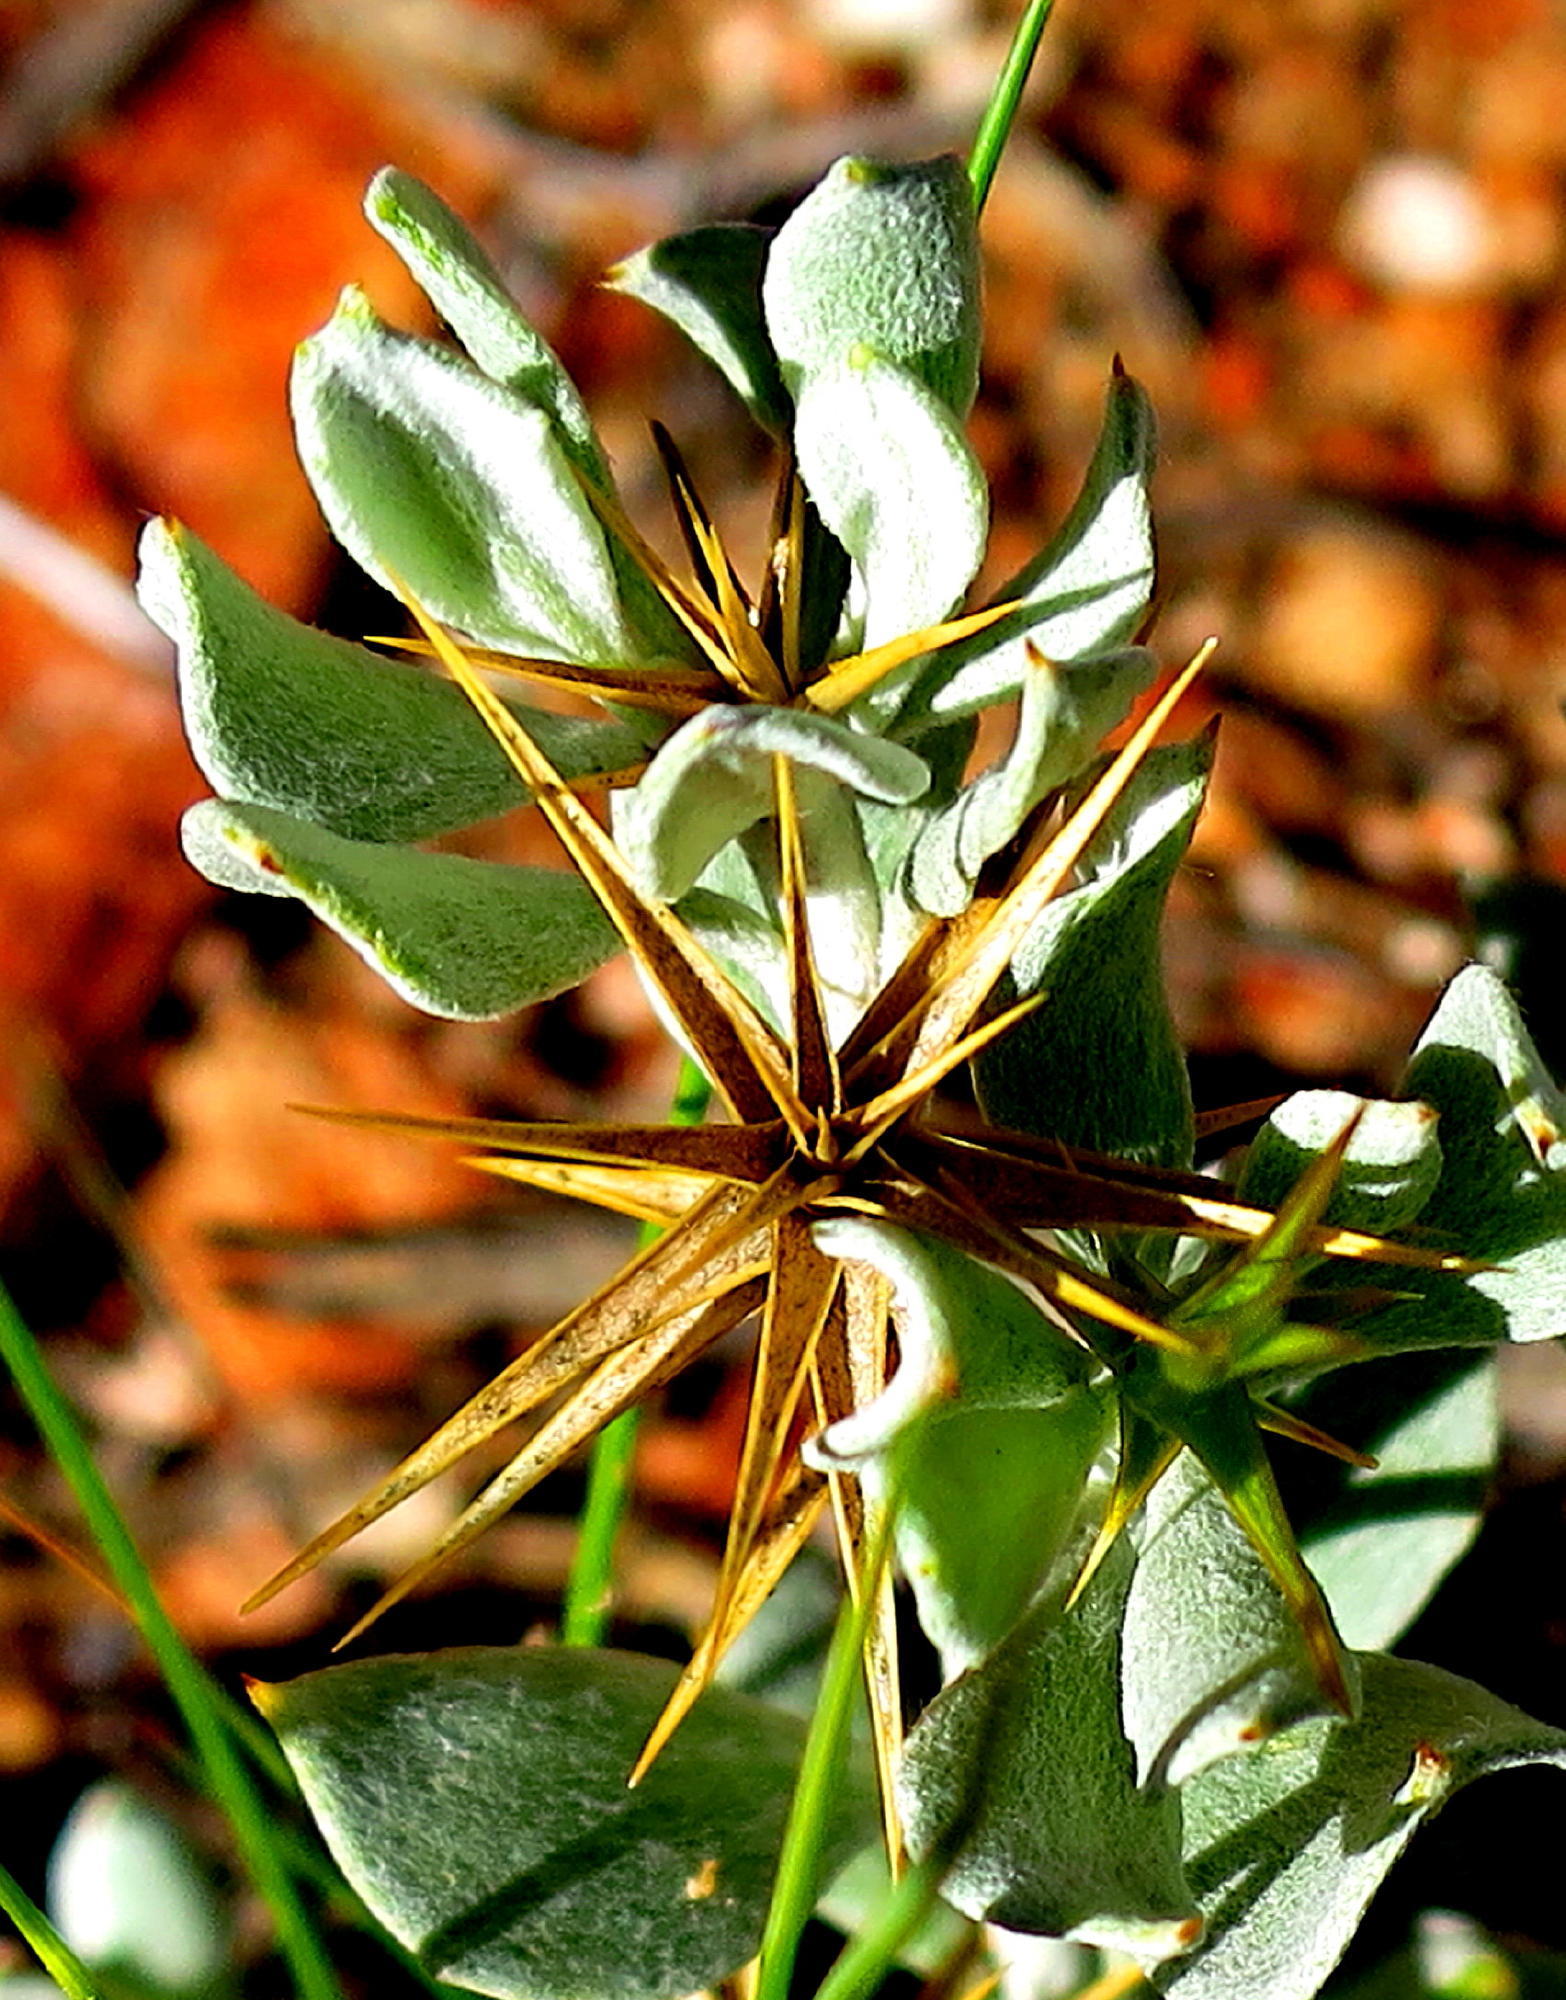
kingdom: Plantae
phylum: Tracheophyta
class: Magnoliopsida
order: Asterales
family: Asteraceae
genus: Macledium
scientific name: Macledium spinosum
